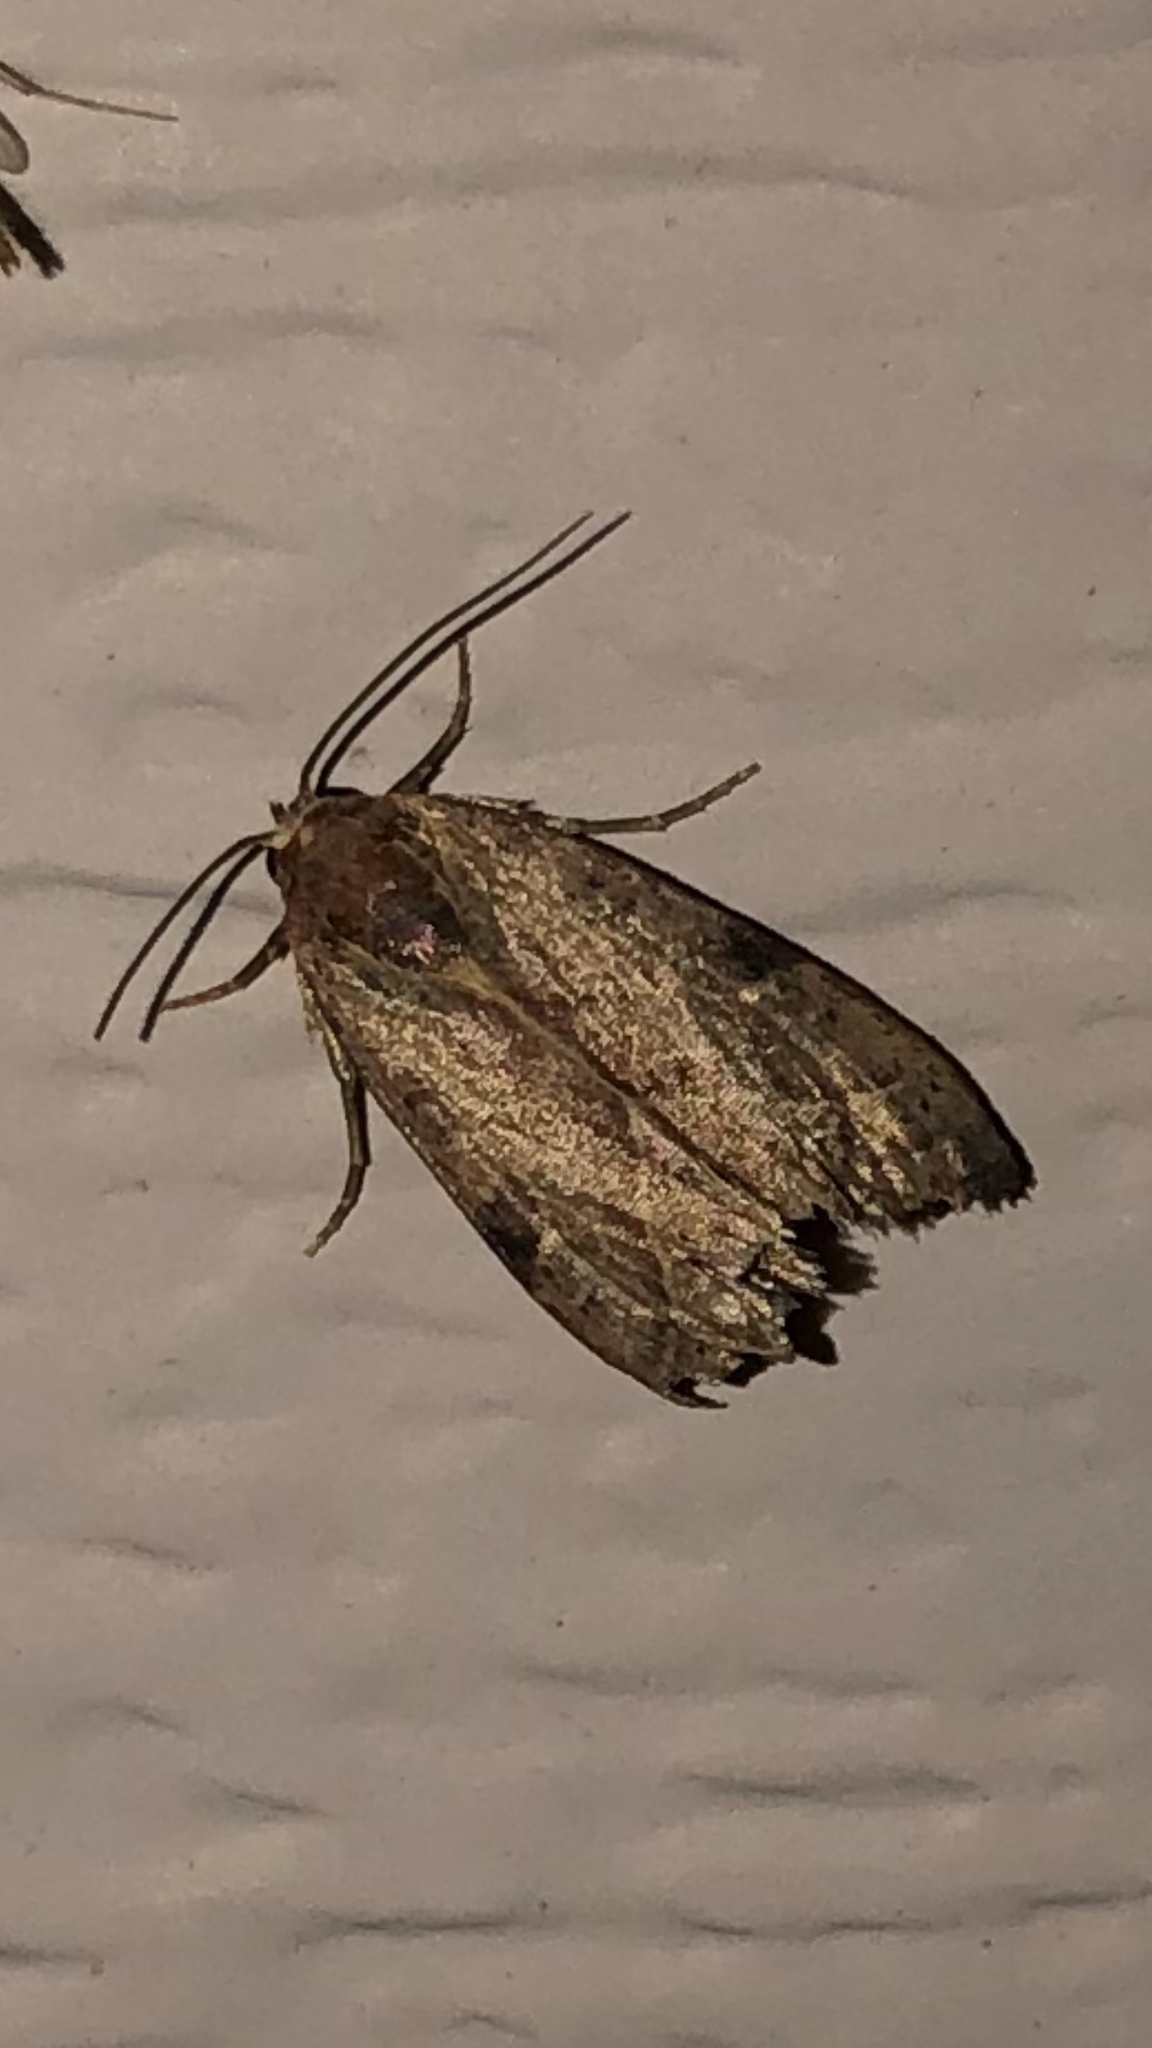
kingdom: Animalia
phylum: Arthropoda
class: Insecta
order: Lepidoptera
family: Noctuidae
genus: Galgula
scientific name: Galgula partita
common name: Wedgeling
